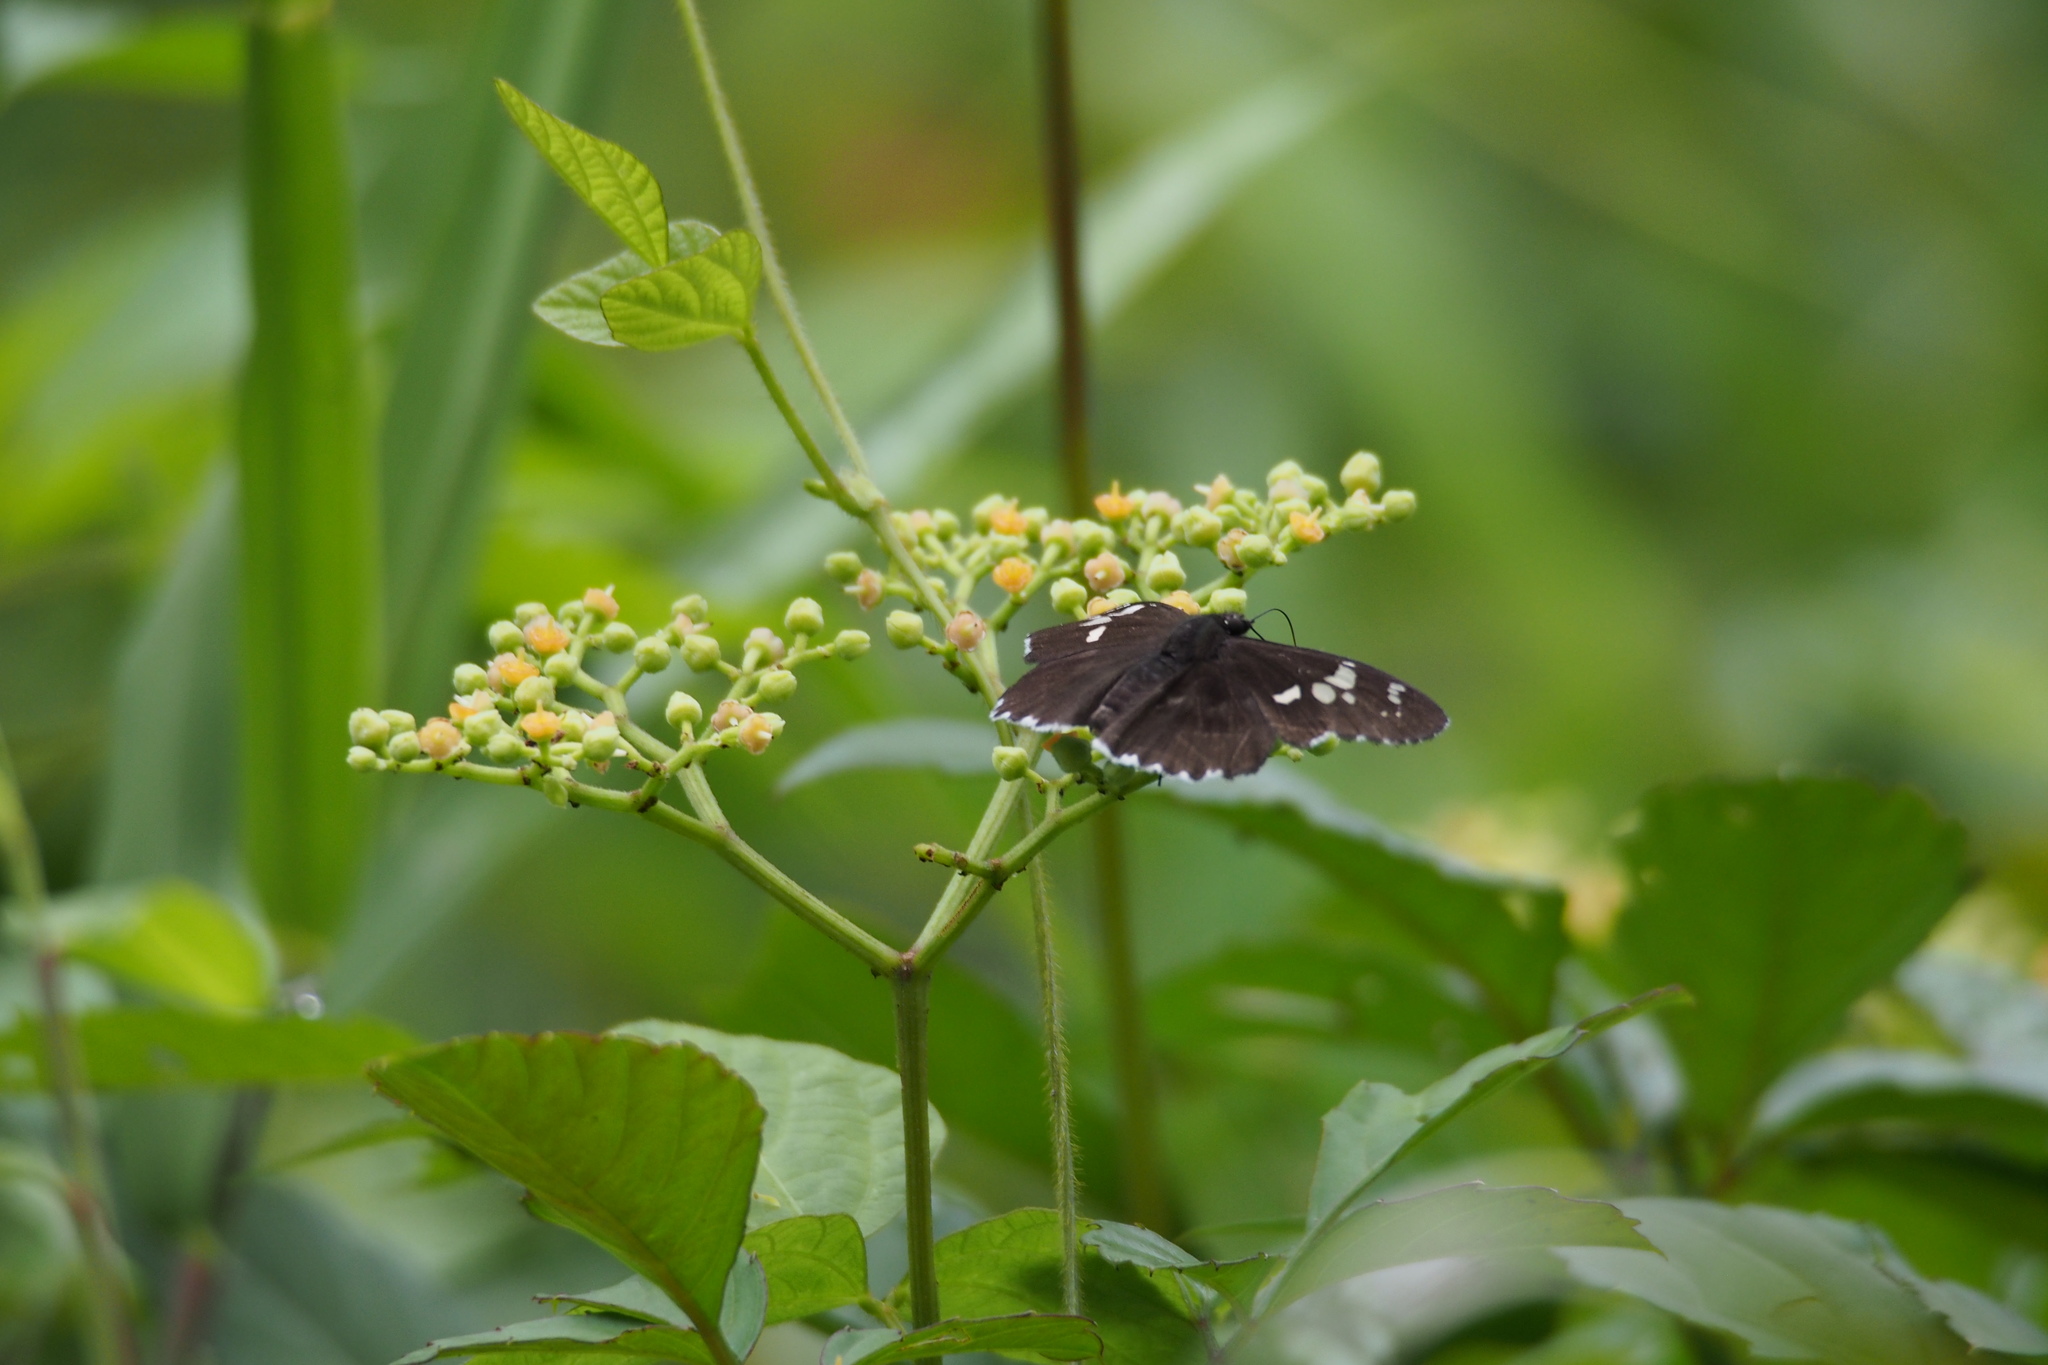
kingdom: Animalia
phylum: Arthropoda
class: Insecta
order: Lepidoptera
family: Hesperiidae
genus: Daimio
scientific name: Daimio tethys
